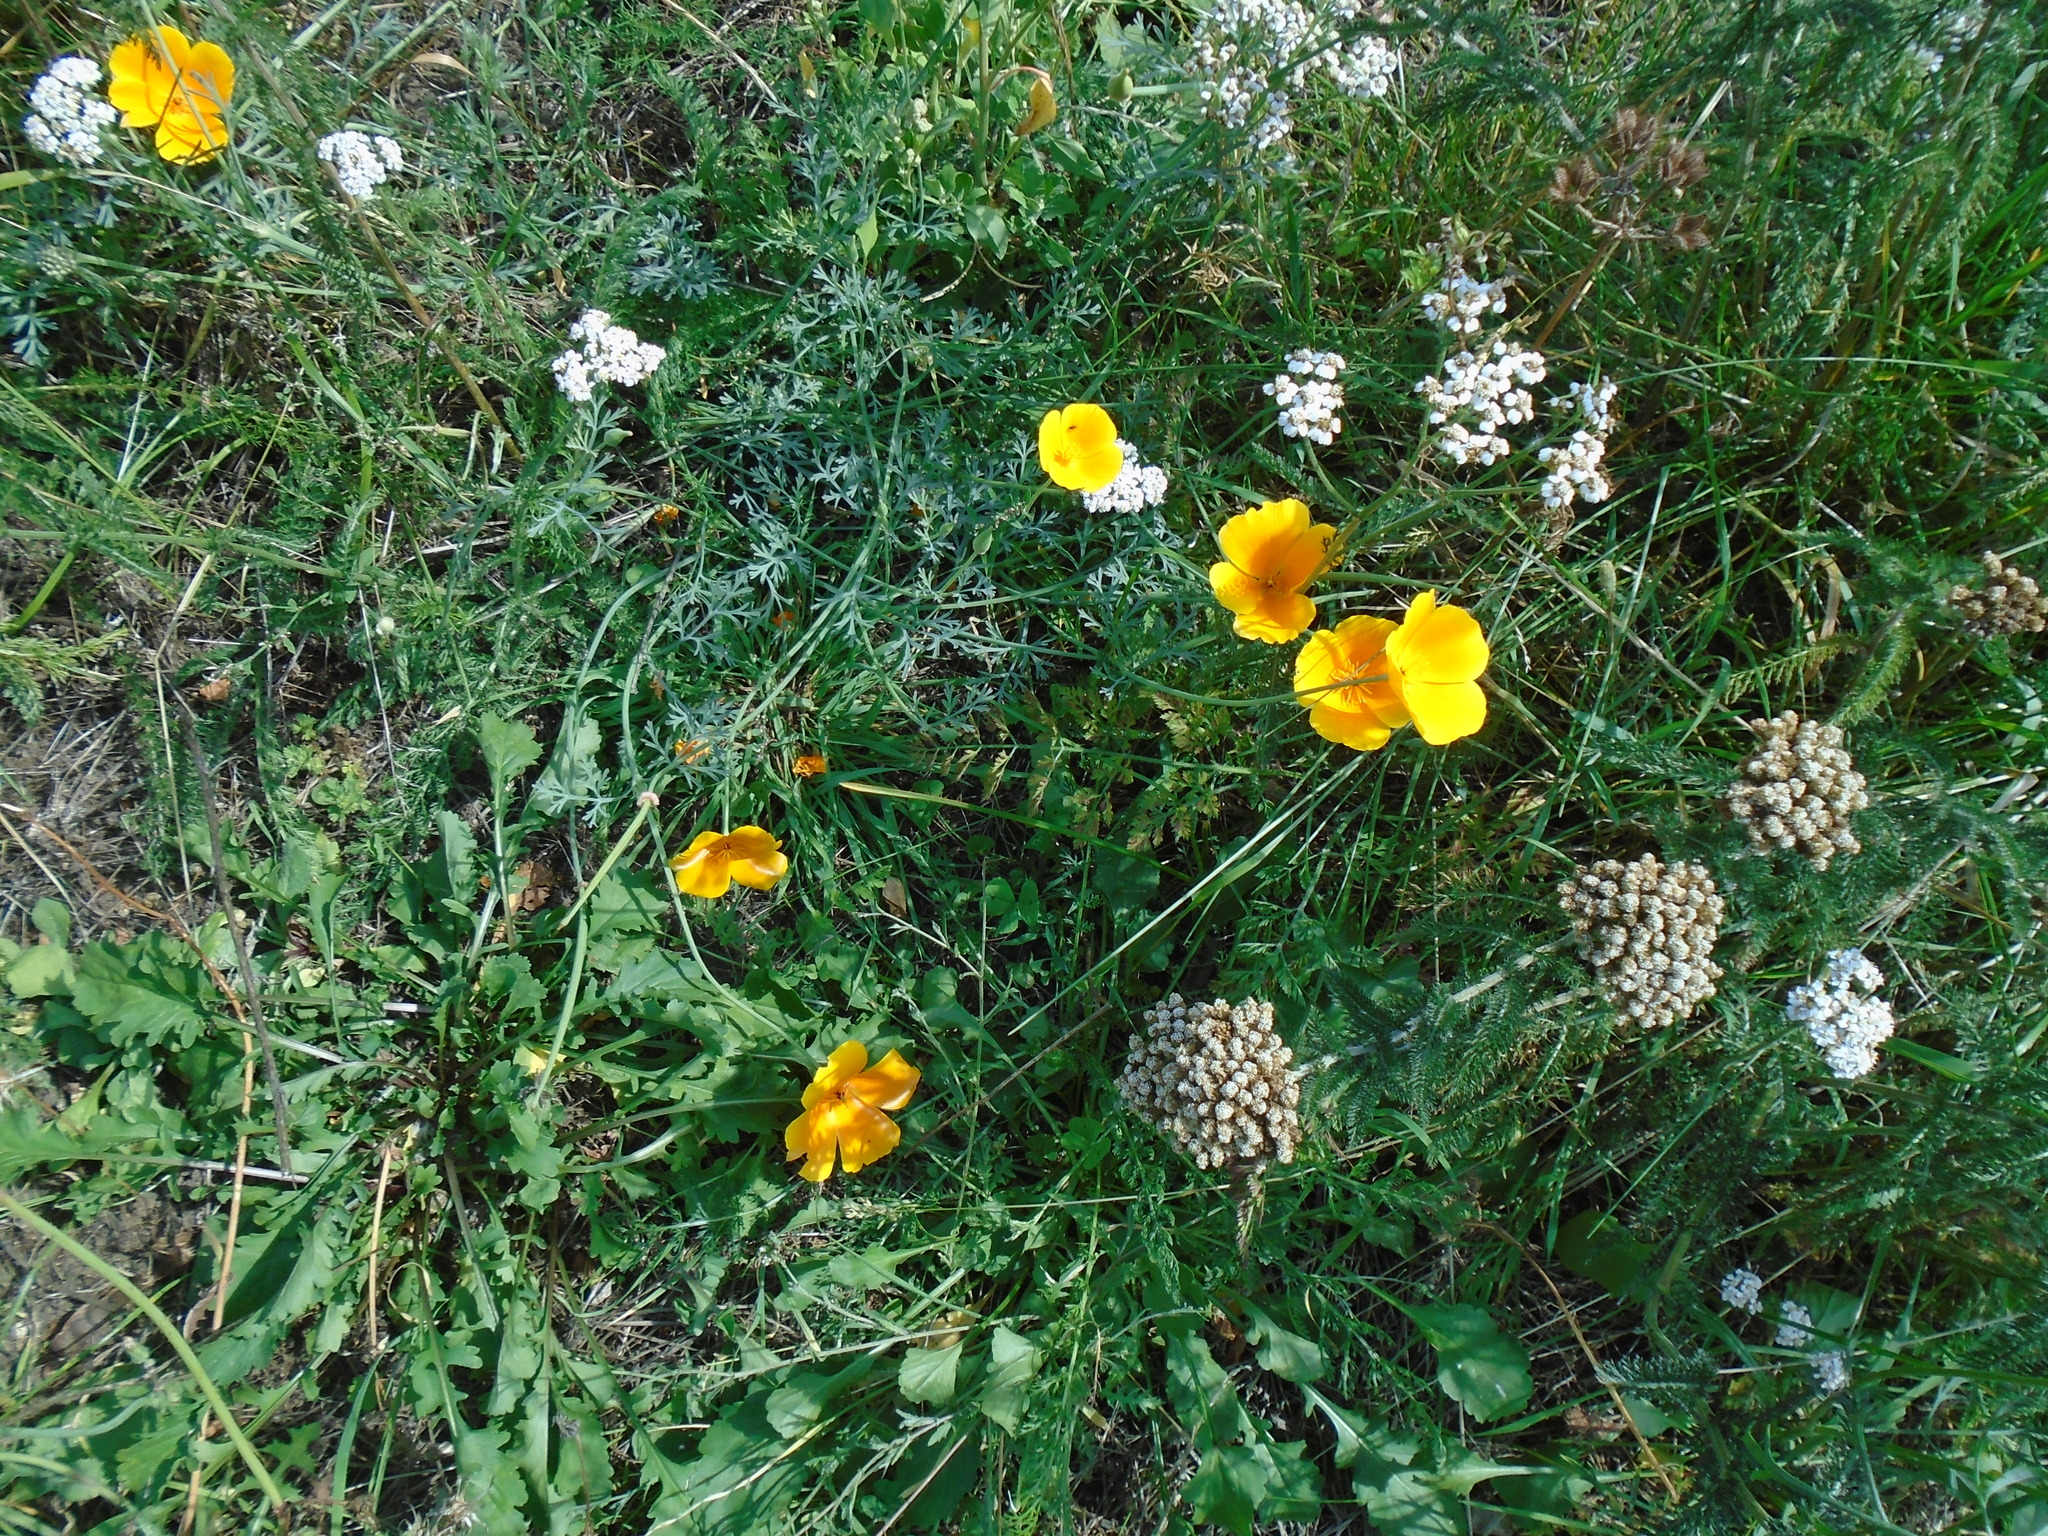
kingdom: Plantae
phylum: Tracheophyta
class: Magnoliopsida
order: Ranunculales
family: Papaveraceae
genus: Eschscholzia
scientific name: Eschscholzia californica
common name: California poppy
